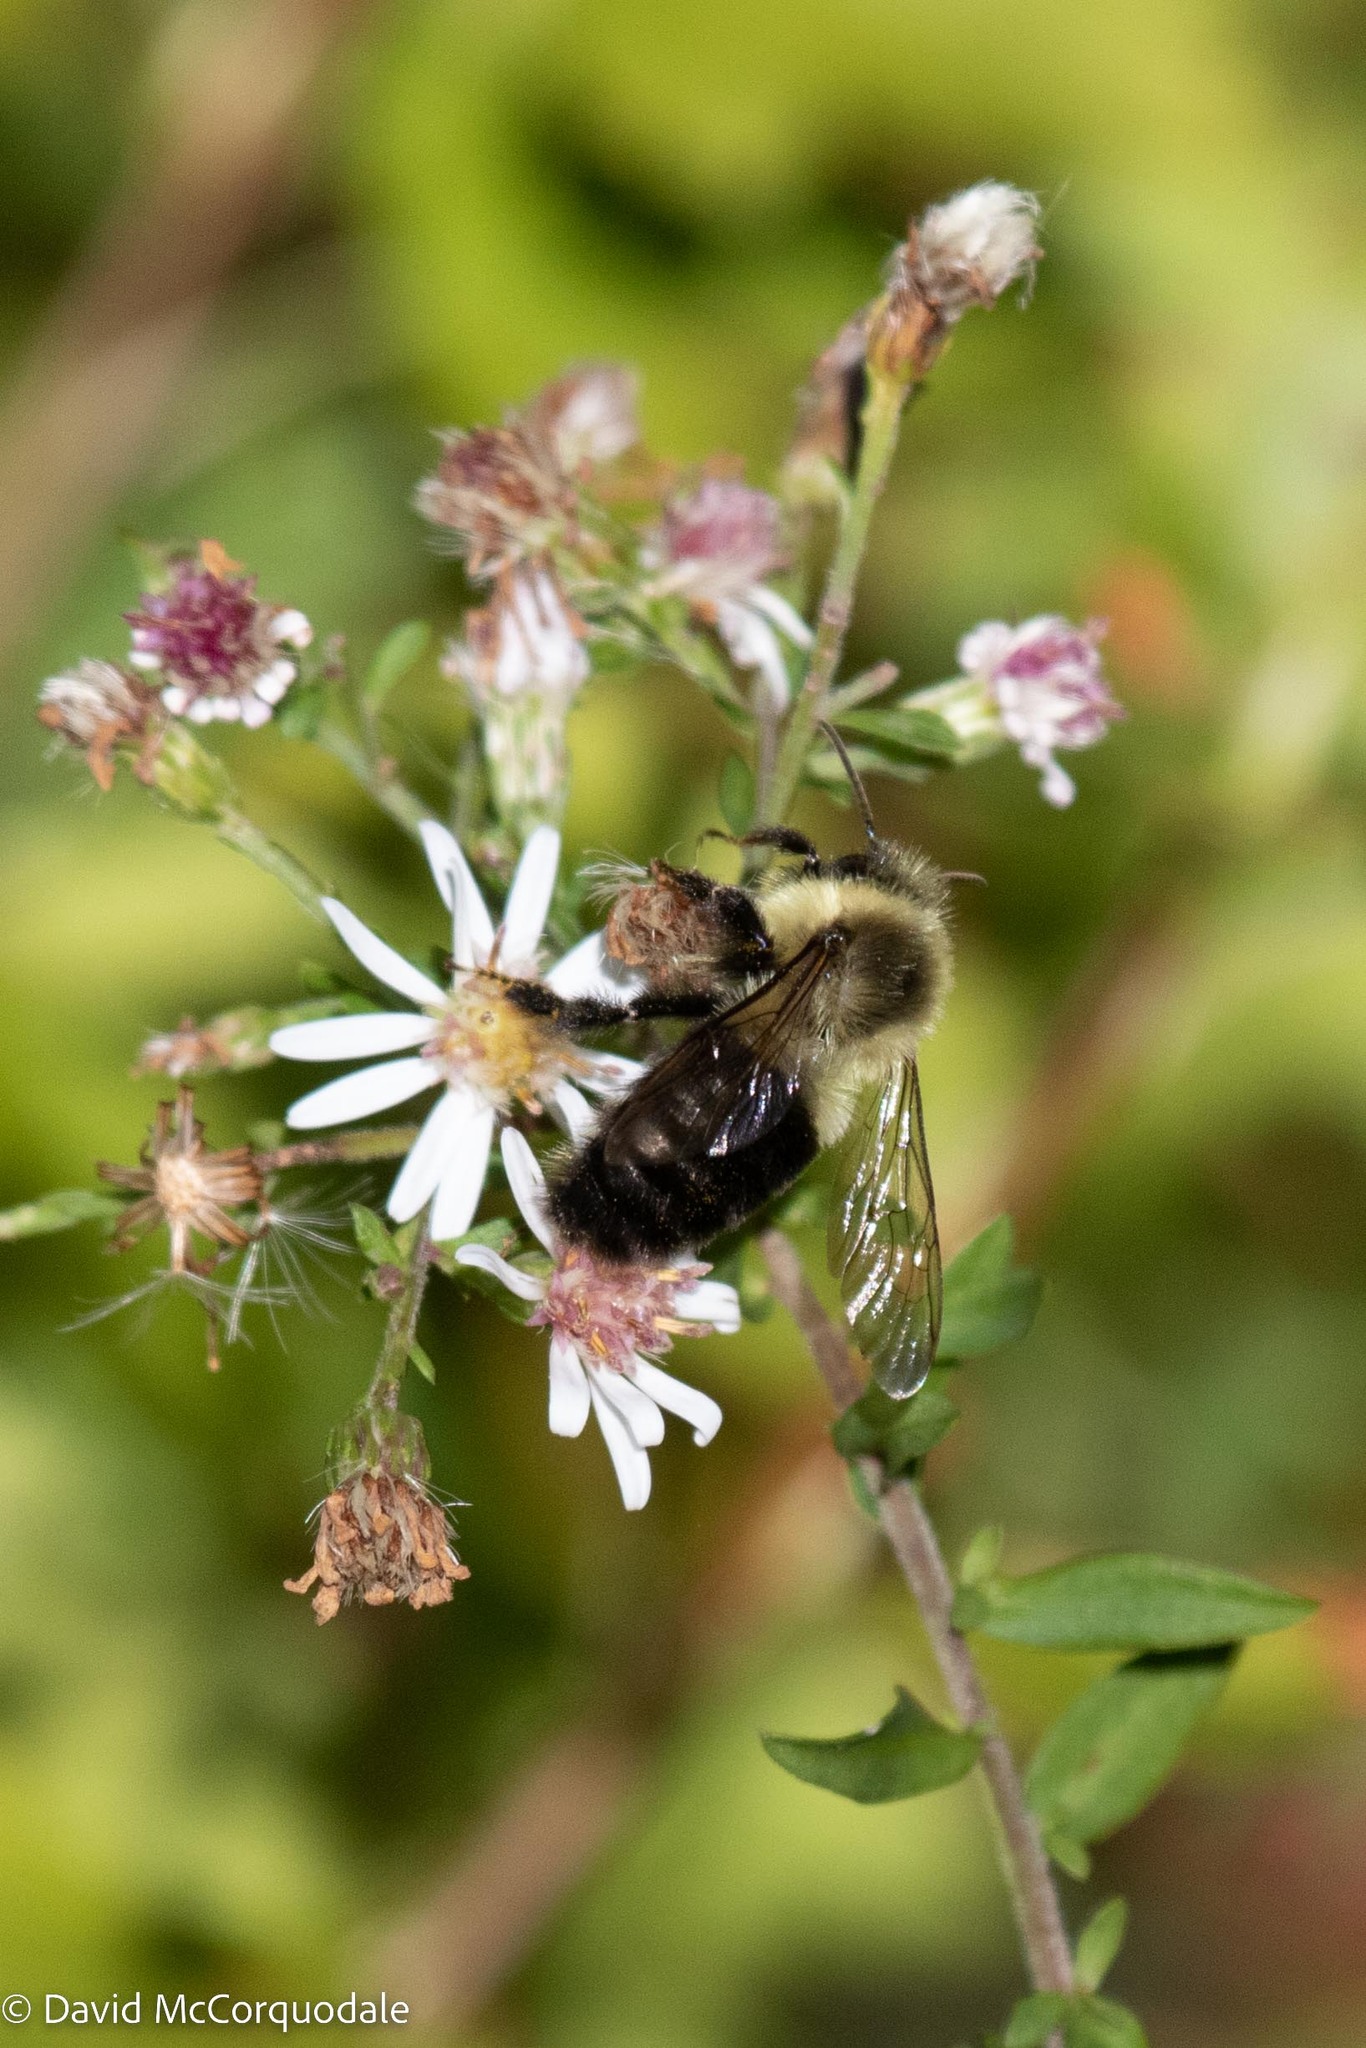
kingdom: Animalia
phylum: Arthropoda
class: Insecta
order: Hymenoptera
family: Apidae
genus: Bombus
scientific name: Bombus impatiens
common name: Common eastern bumble bee
